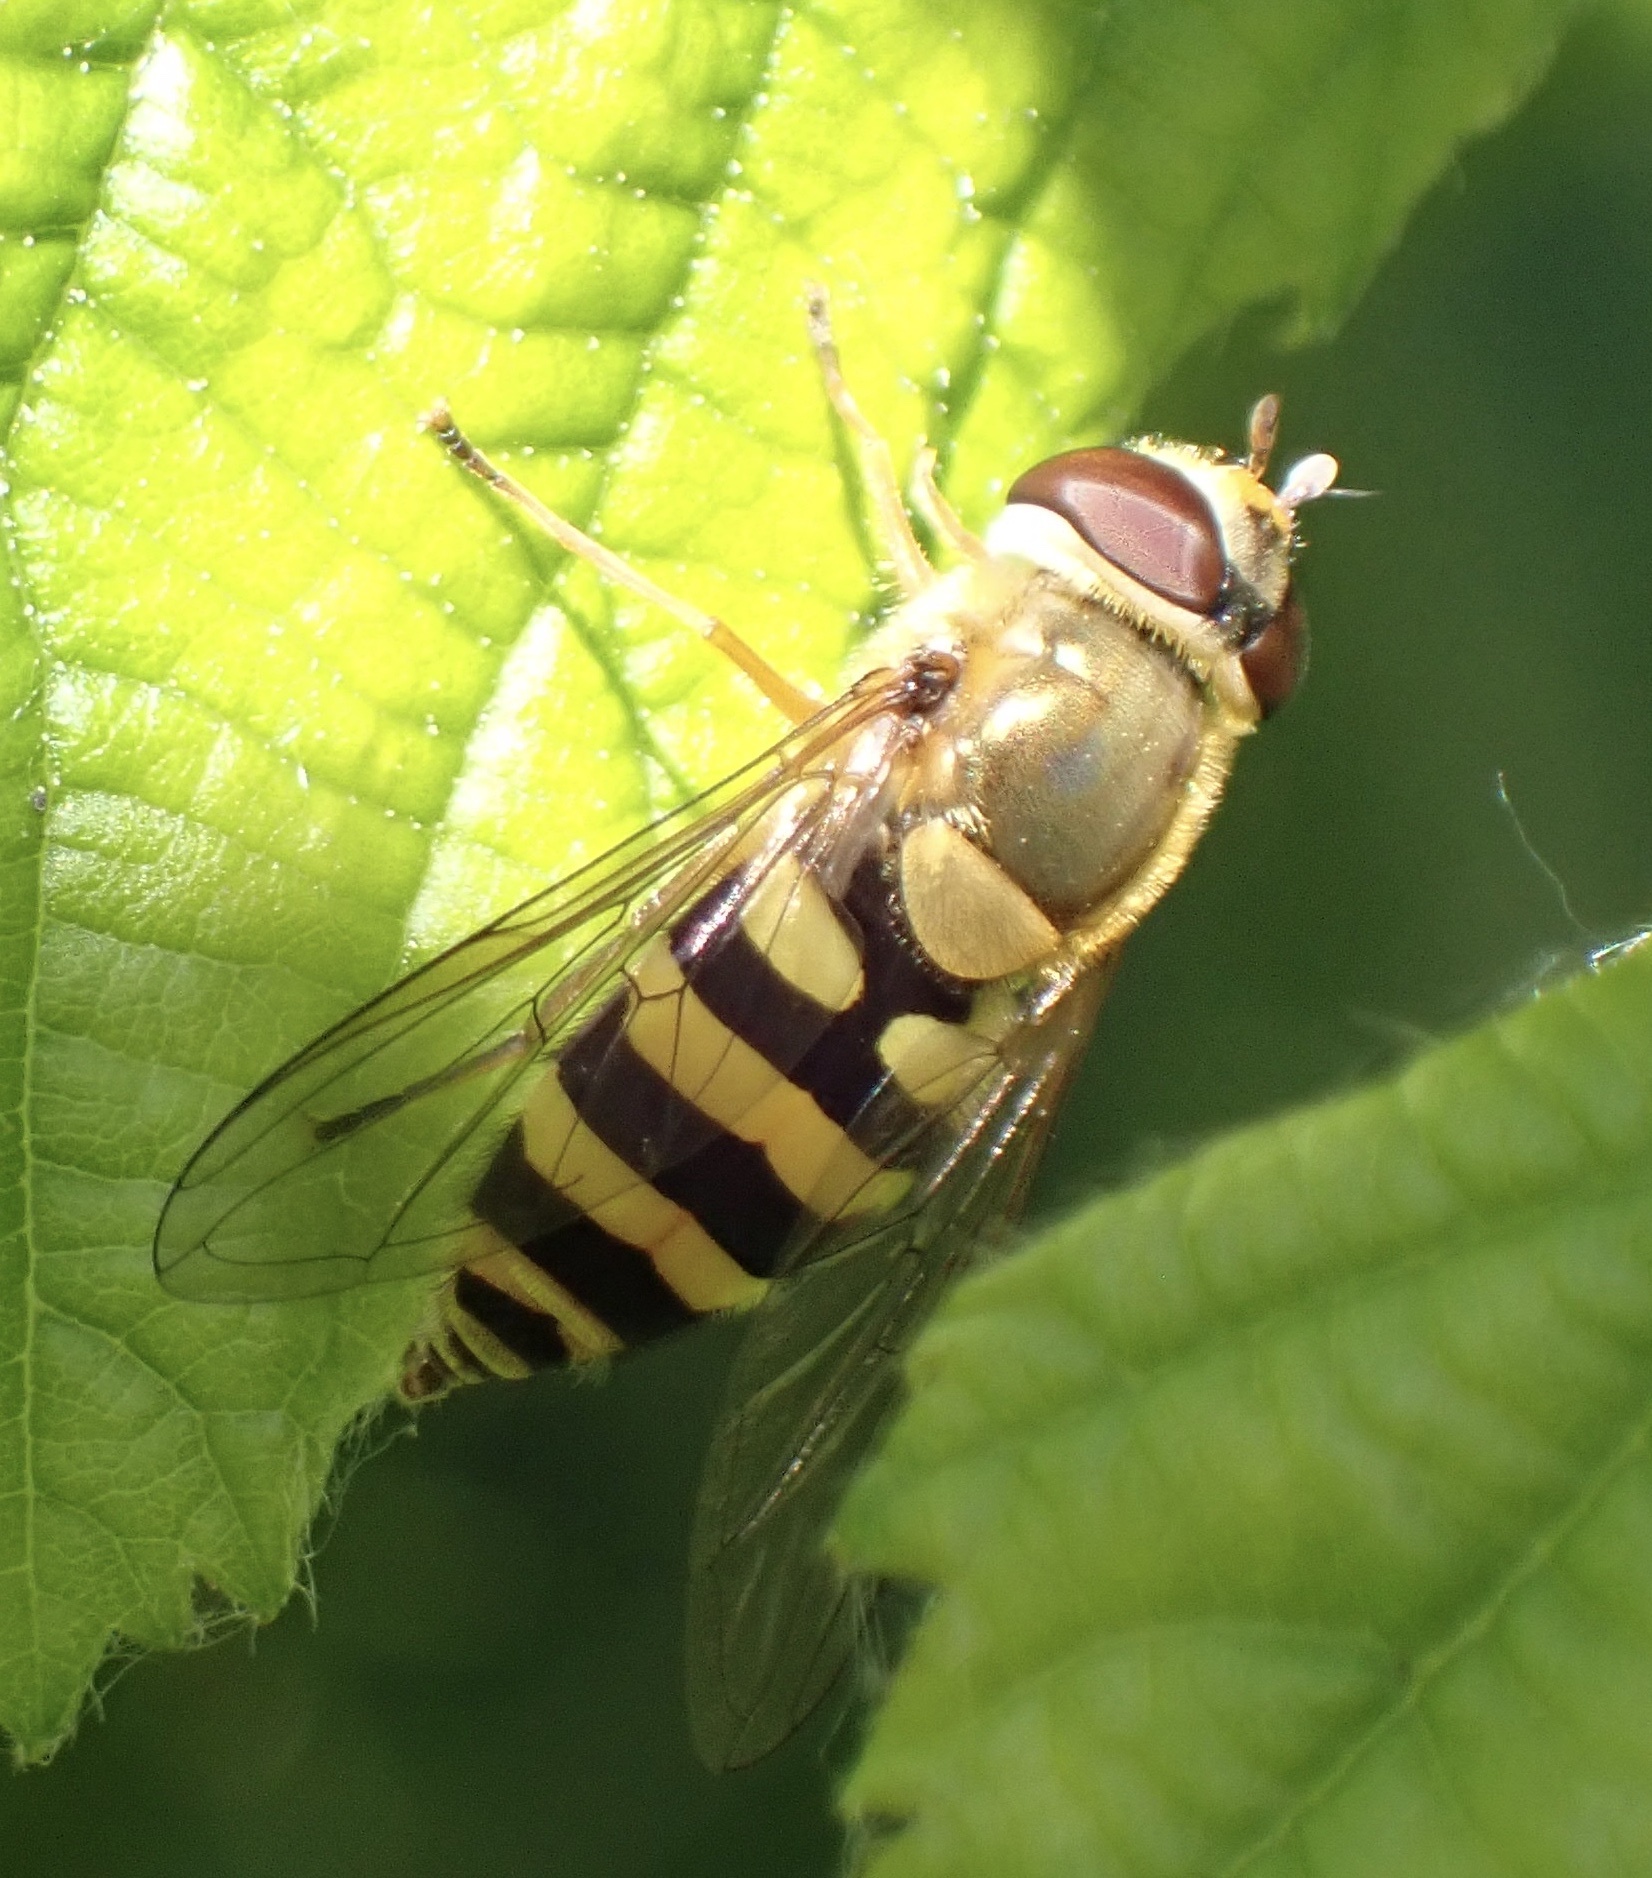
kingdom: Animalia
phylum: Arthropoda
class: Insecta
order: Diptera
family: Syrphidae
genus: Syrphus
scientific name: Syrphus
